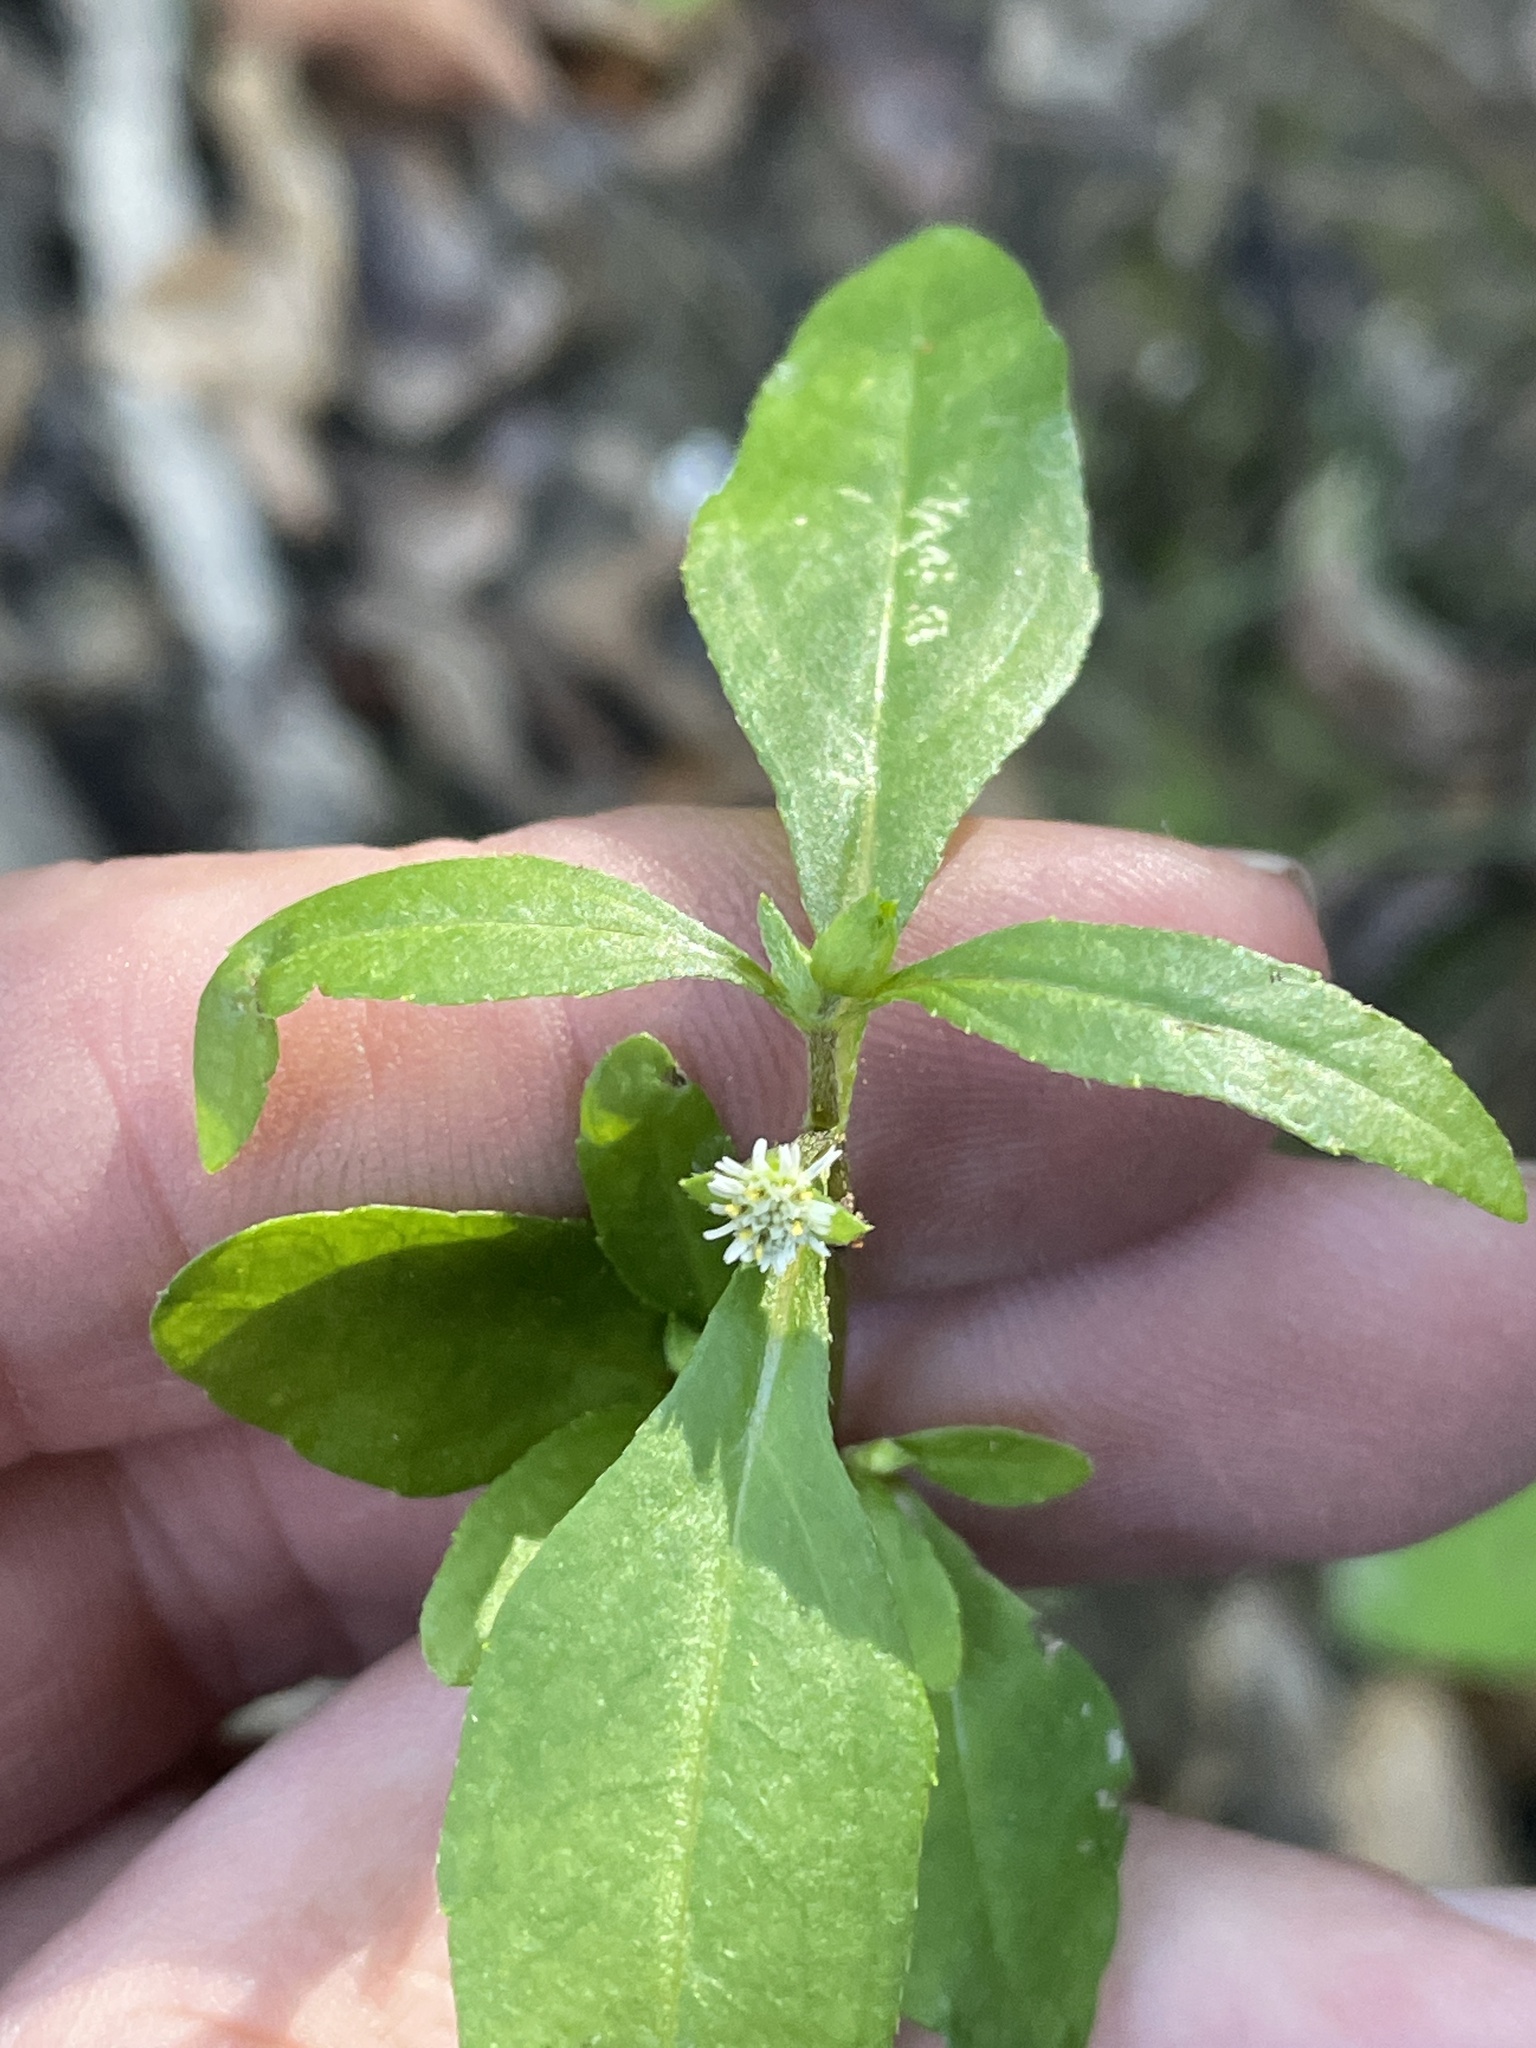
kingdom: Plantae
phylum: Tracheophyta
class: Magnoliopsida
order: Asterales
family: Asteraceae
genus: Eclipta
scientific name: Eclipta prostrata
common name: False daisy
